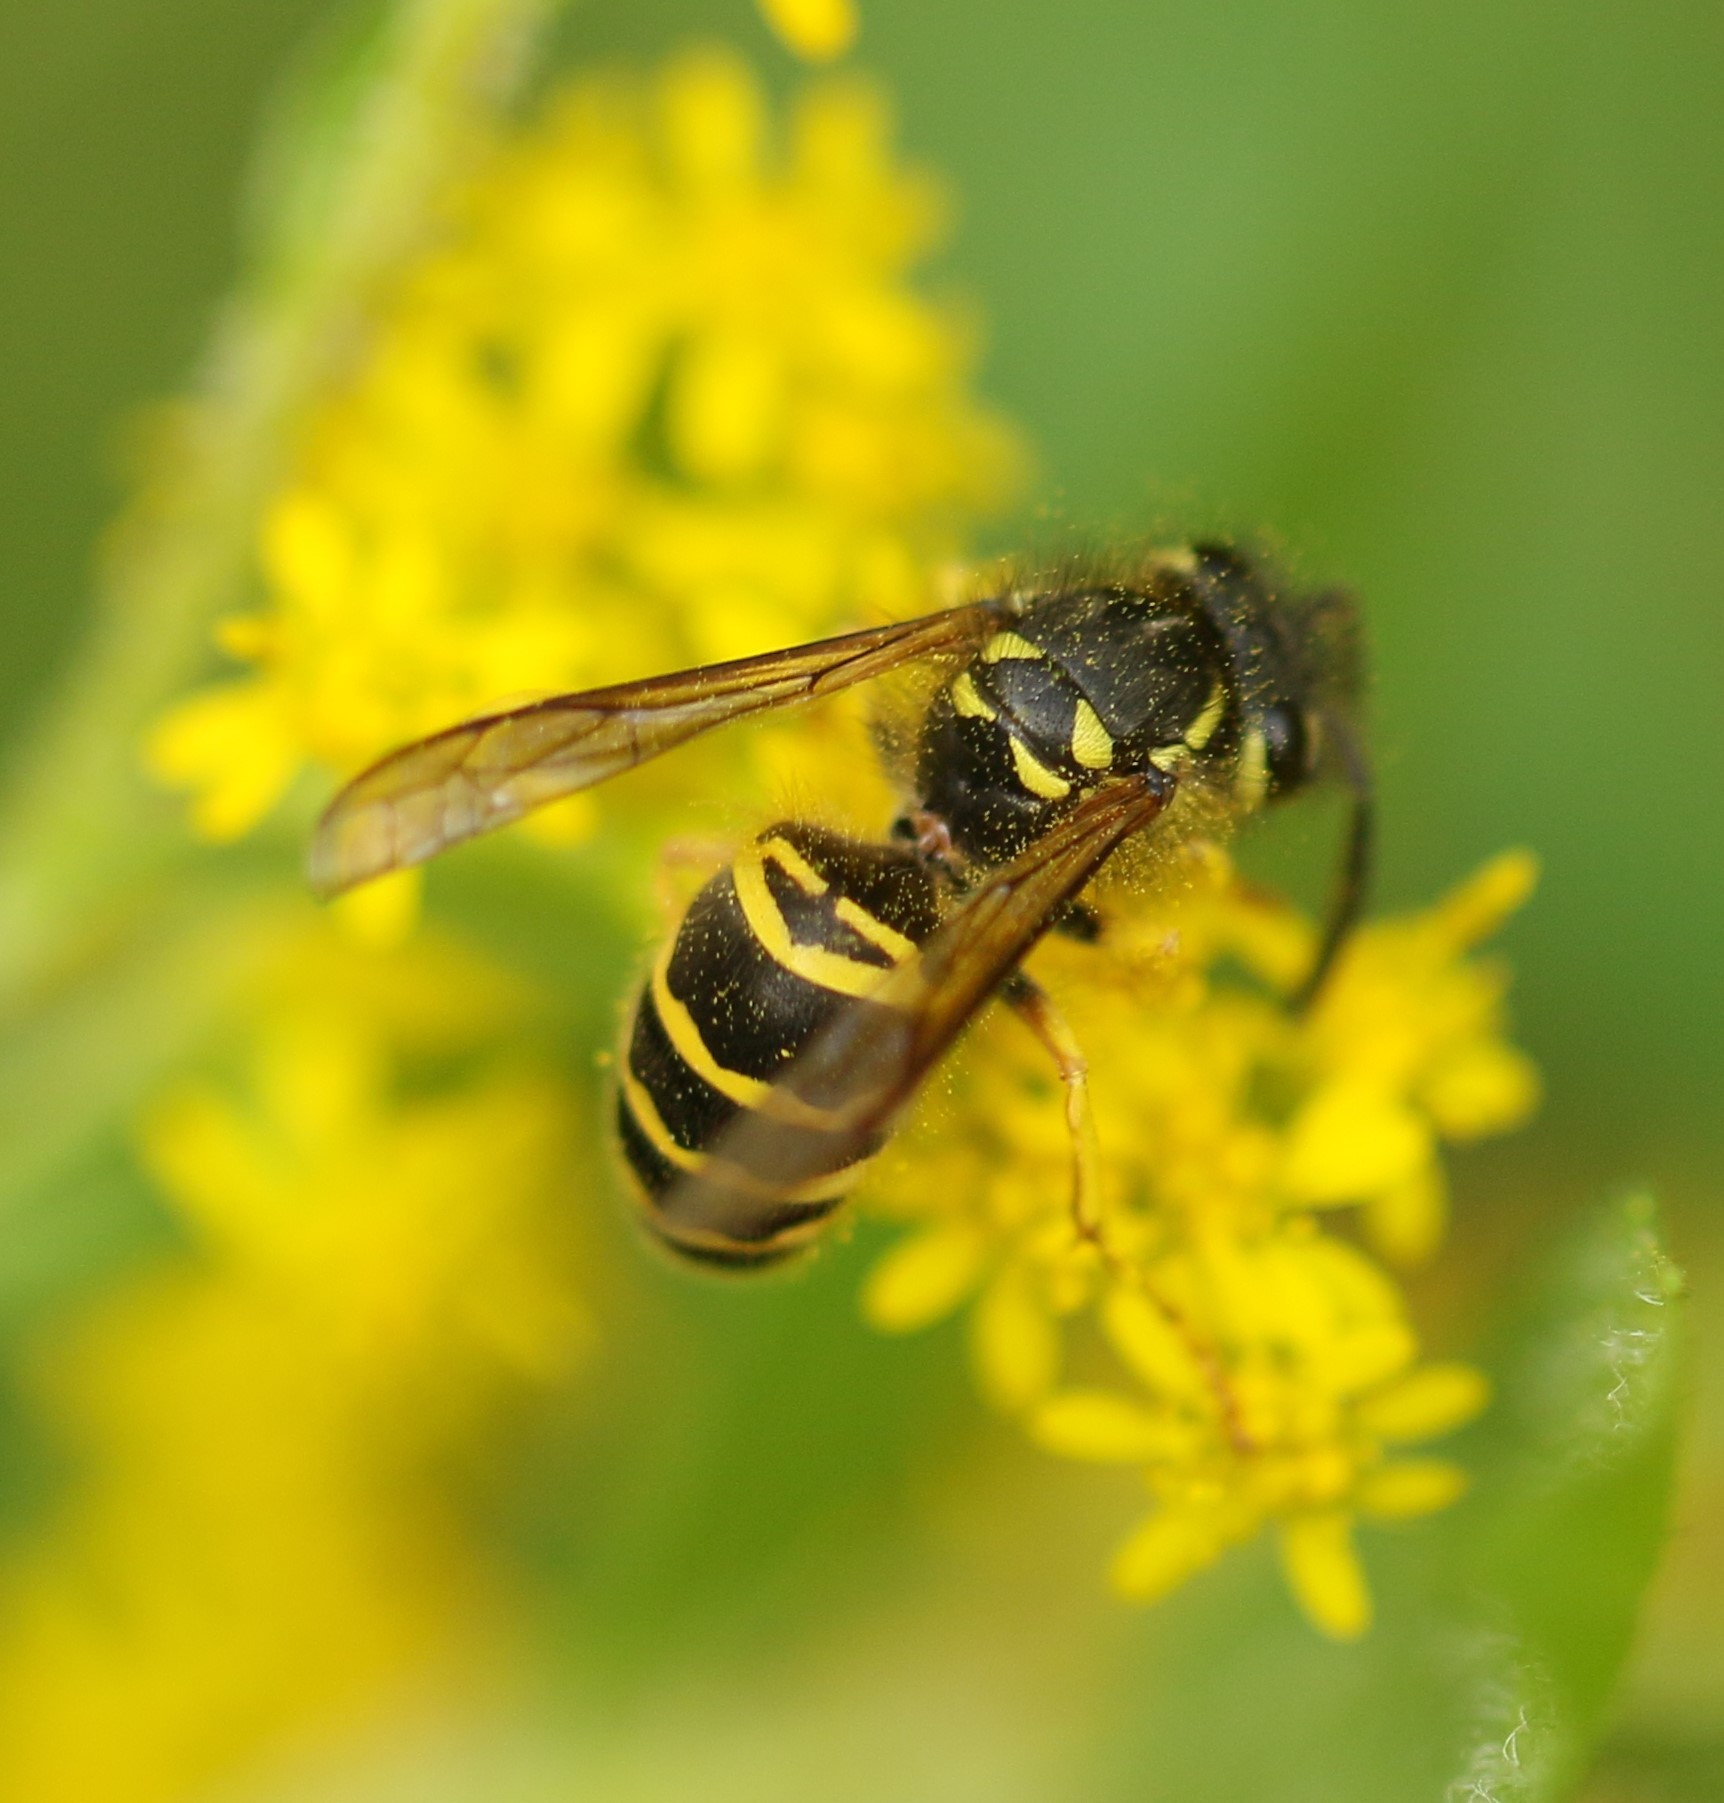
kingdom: Animalia
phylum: Arthropoda
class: Insecta
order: Hymenoptera
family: Vespidae
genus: Vespula
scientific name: Vespula maculifrons
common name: Eastern yellowjacket
